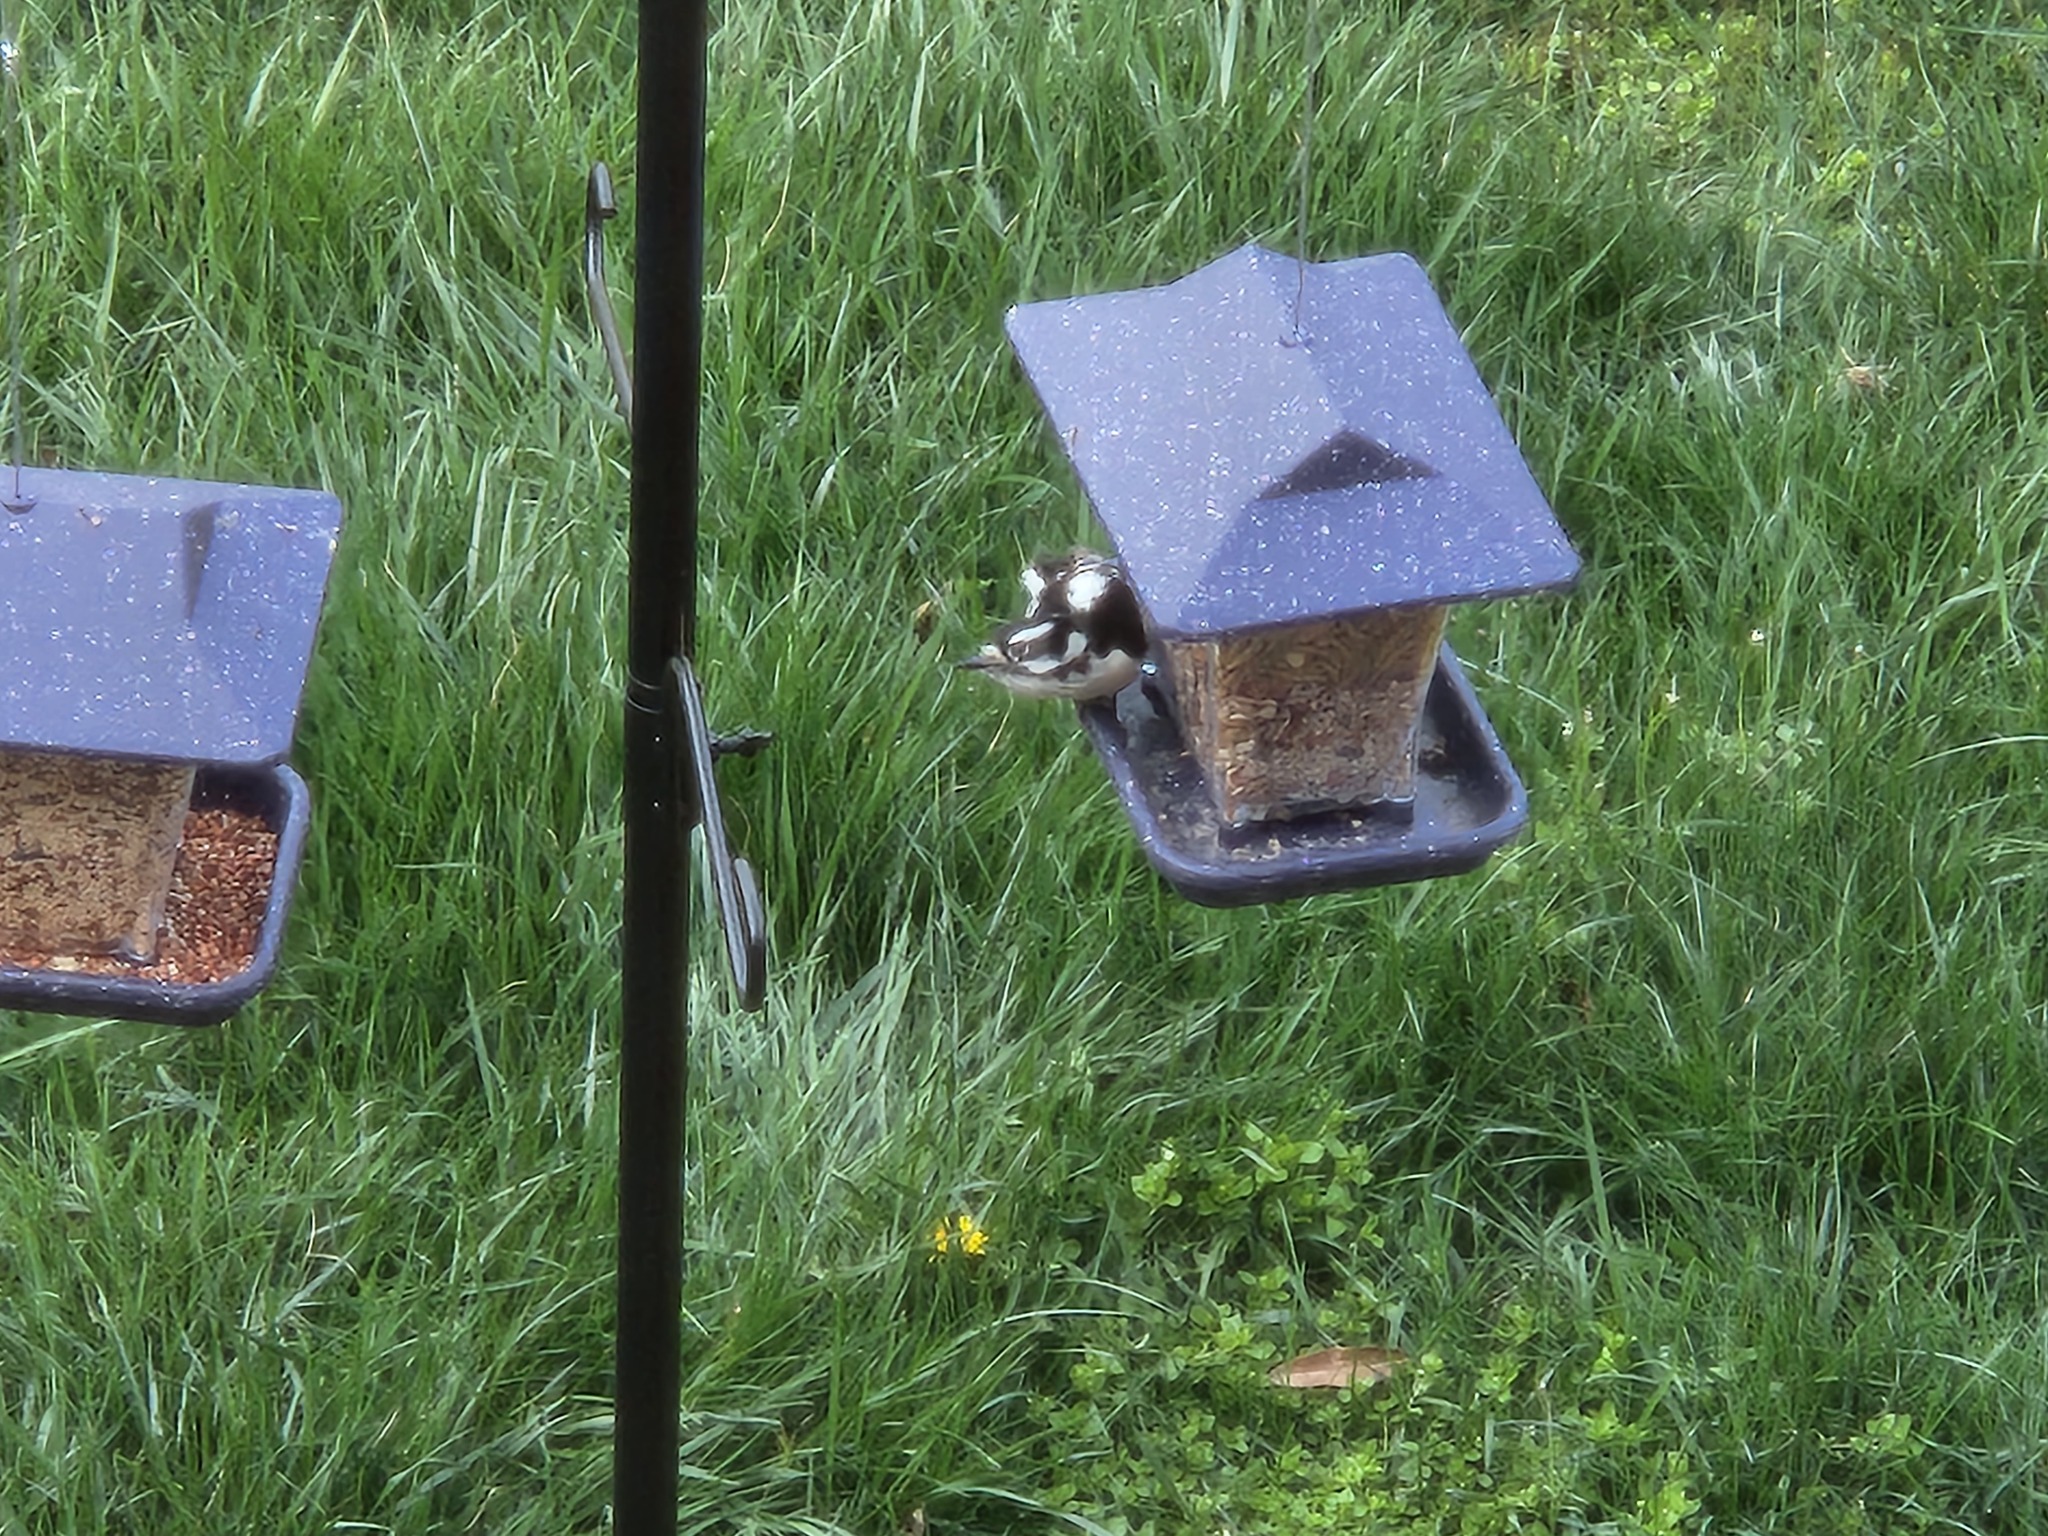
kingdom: Animalia
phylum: Chordata
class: Aves
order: Piciformes
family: Picidae
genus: Dryobates
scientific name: Dryobates pubescens
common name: Downy woodpecker
